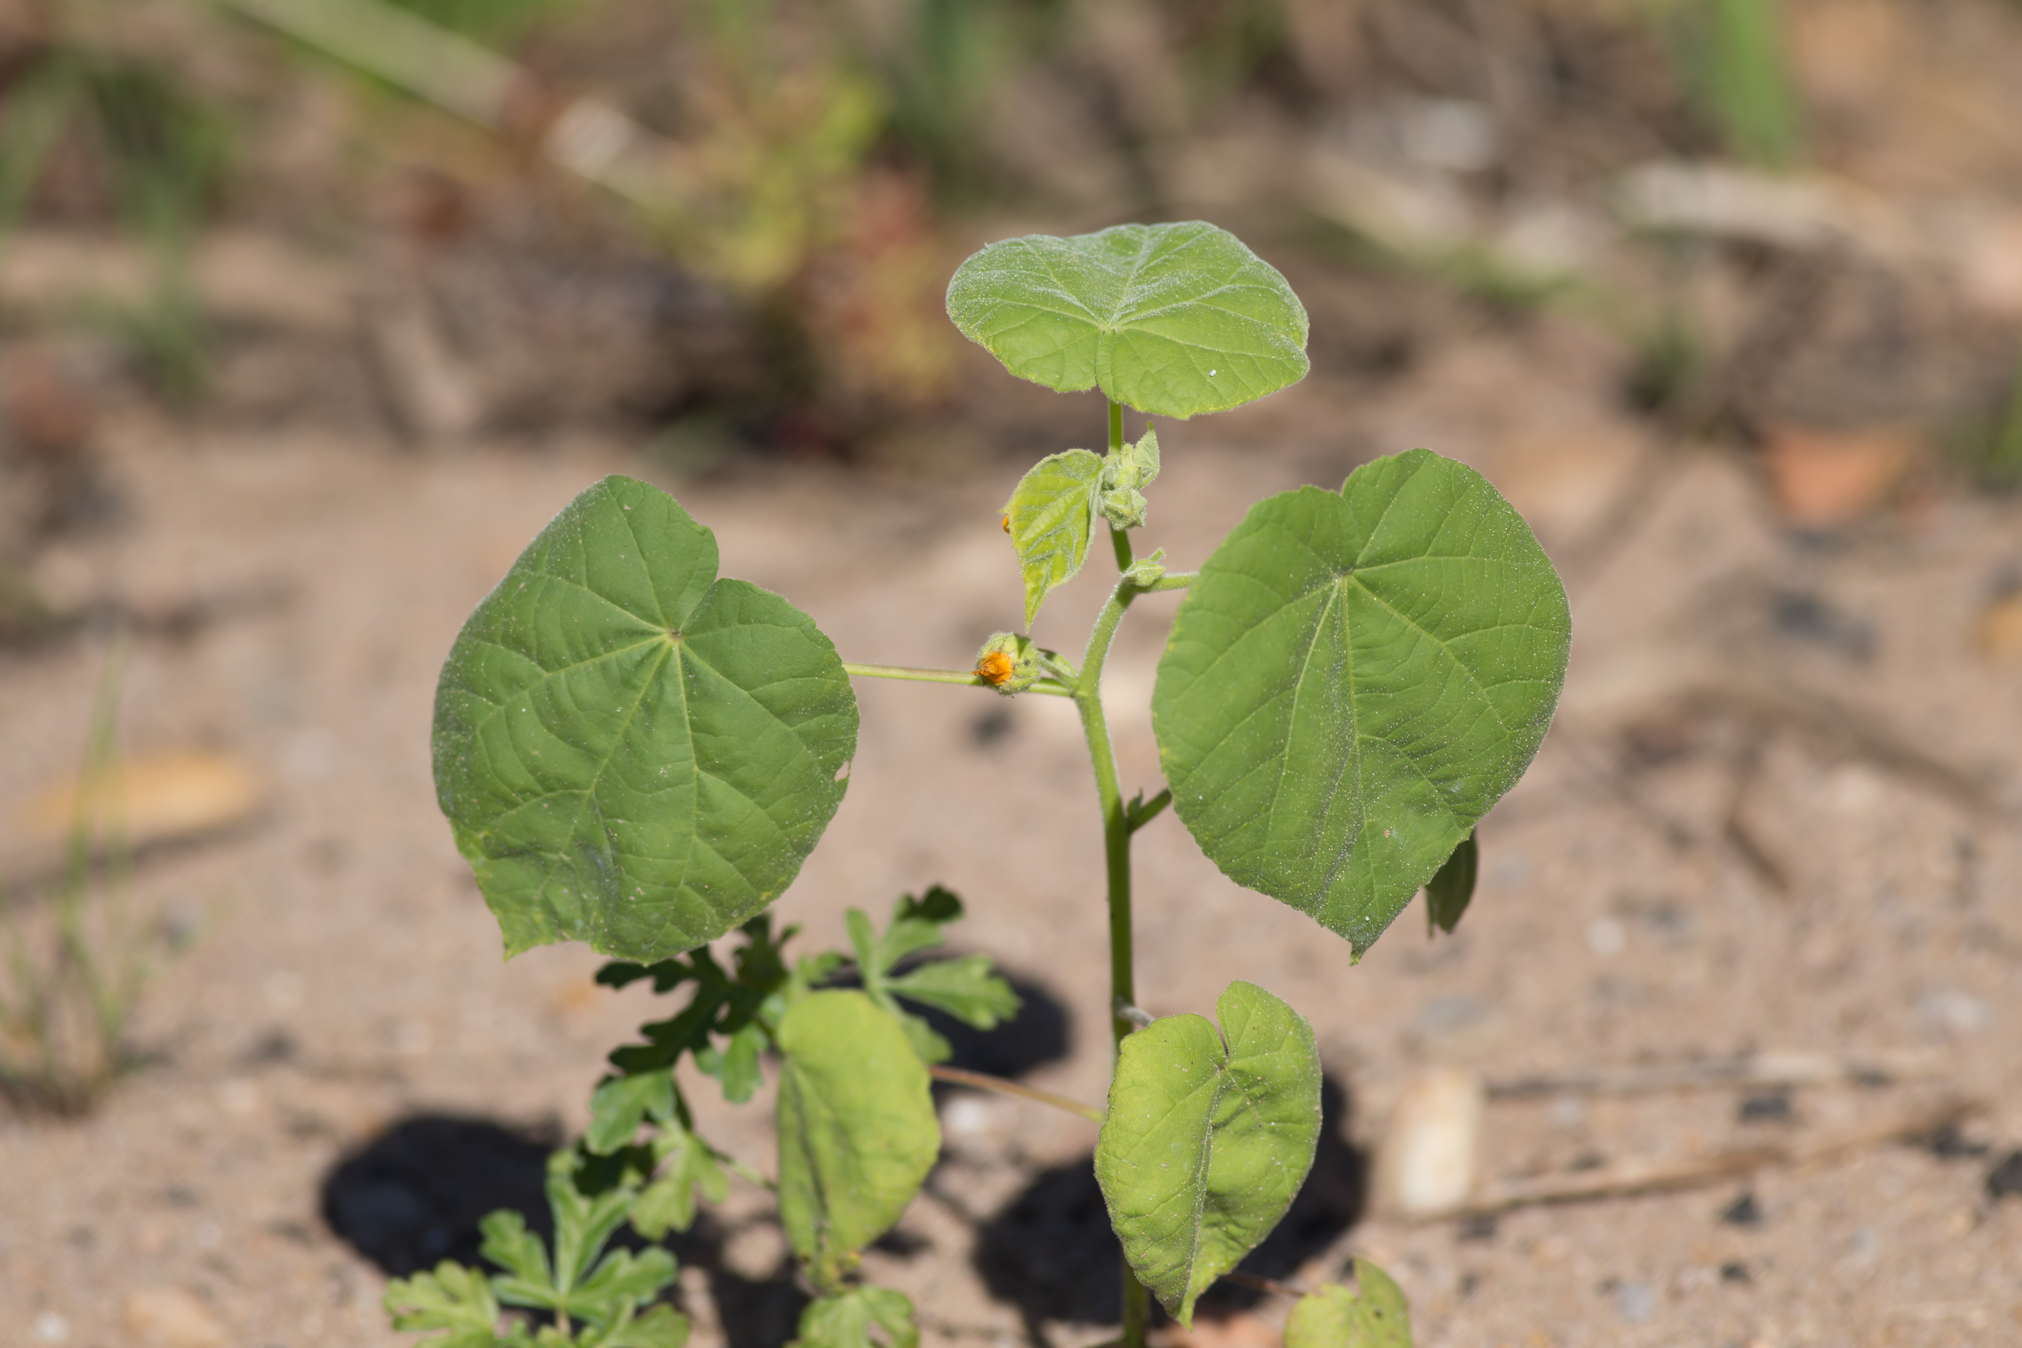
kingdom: Plantae
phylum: Tracheophyta
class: Magnoliopsida
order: Malvales
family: Malvaceae
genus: Abutilon
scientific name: Abutilon theophrasti
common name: Velvetleaf
